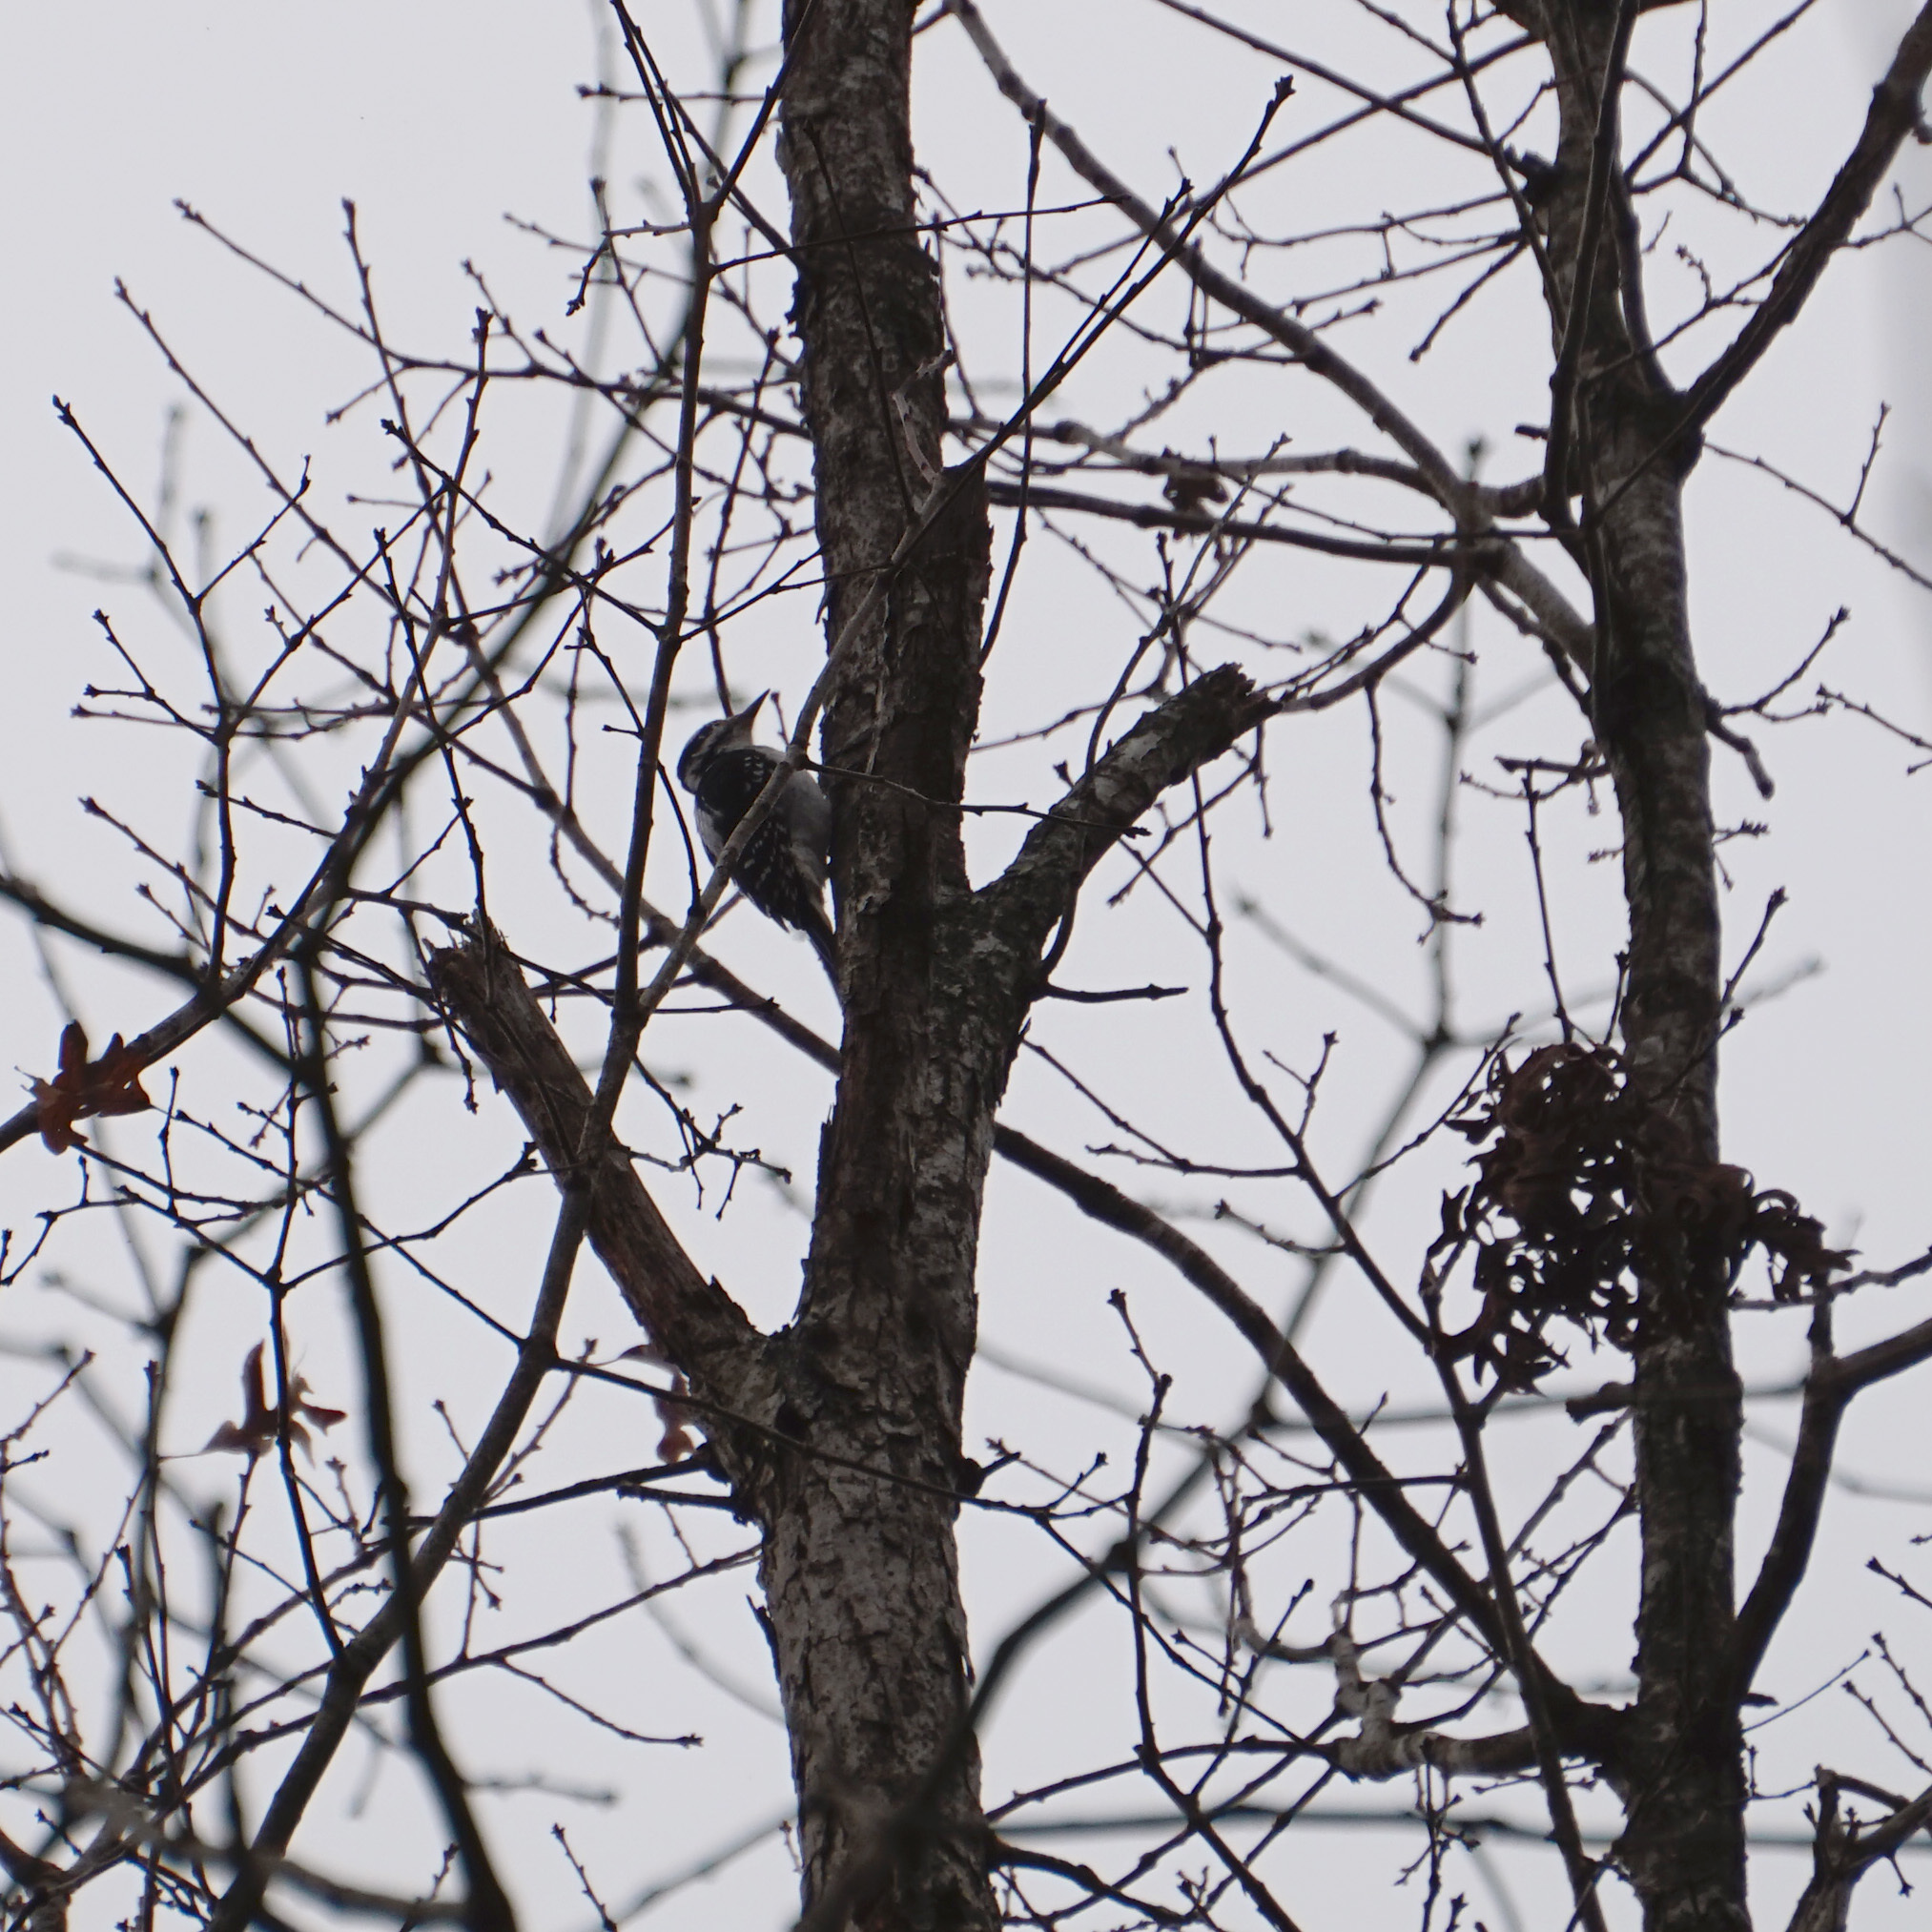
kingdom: Animalia
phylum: Chordata
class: Aves
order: Piciformes
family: Picidae
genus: Leuconotopicus
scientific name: Leuconotopicus villosus
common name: Hairy woodpecker
